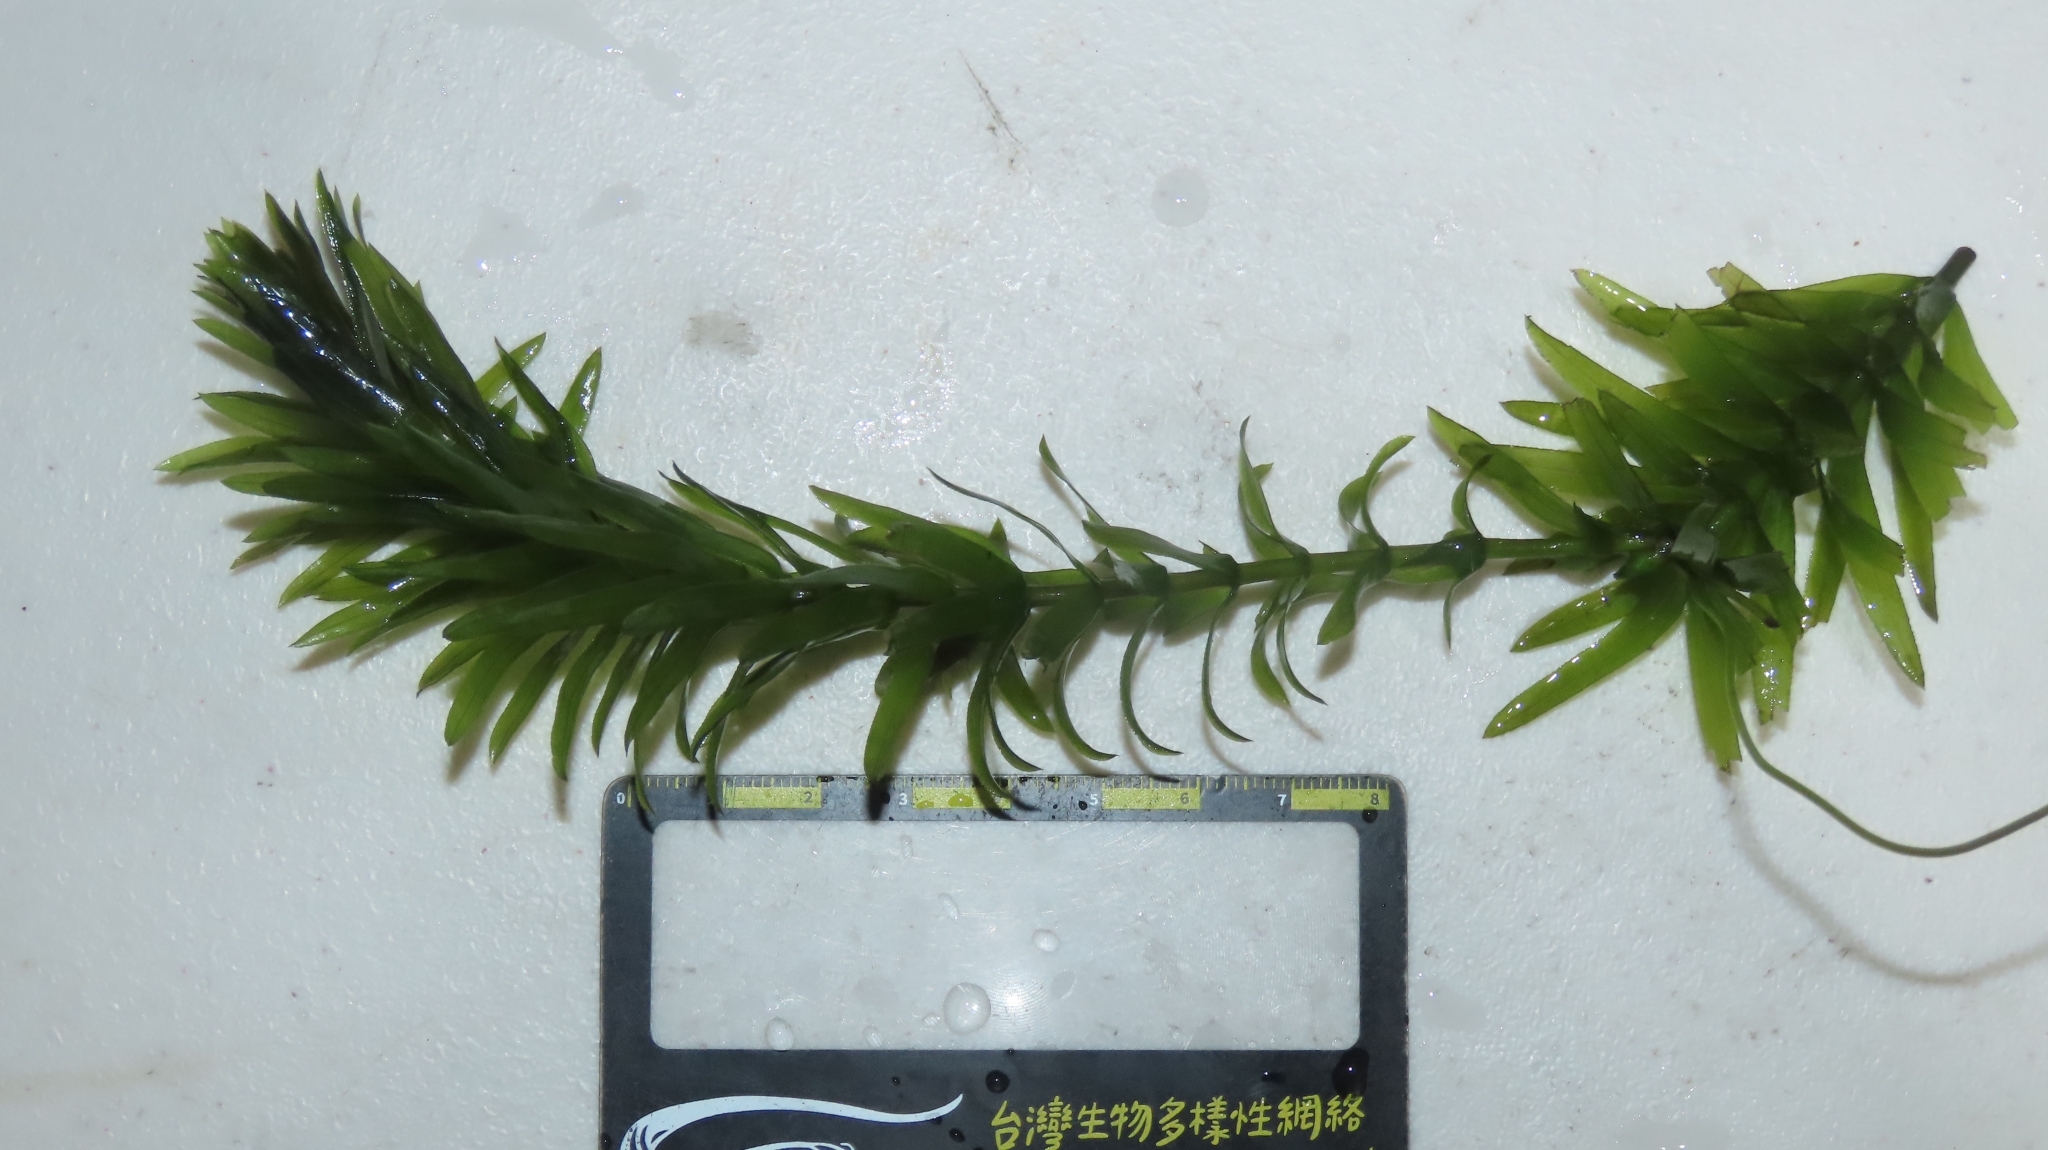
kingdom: Plantae
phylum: Tracheophyta
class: Liliopsida
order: Alismatales
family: Hydrocharitaceae
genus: Elodea
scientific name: Elodea densa
